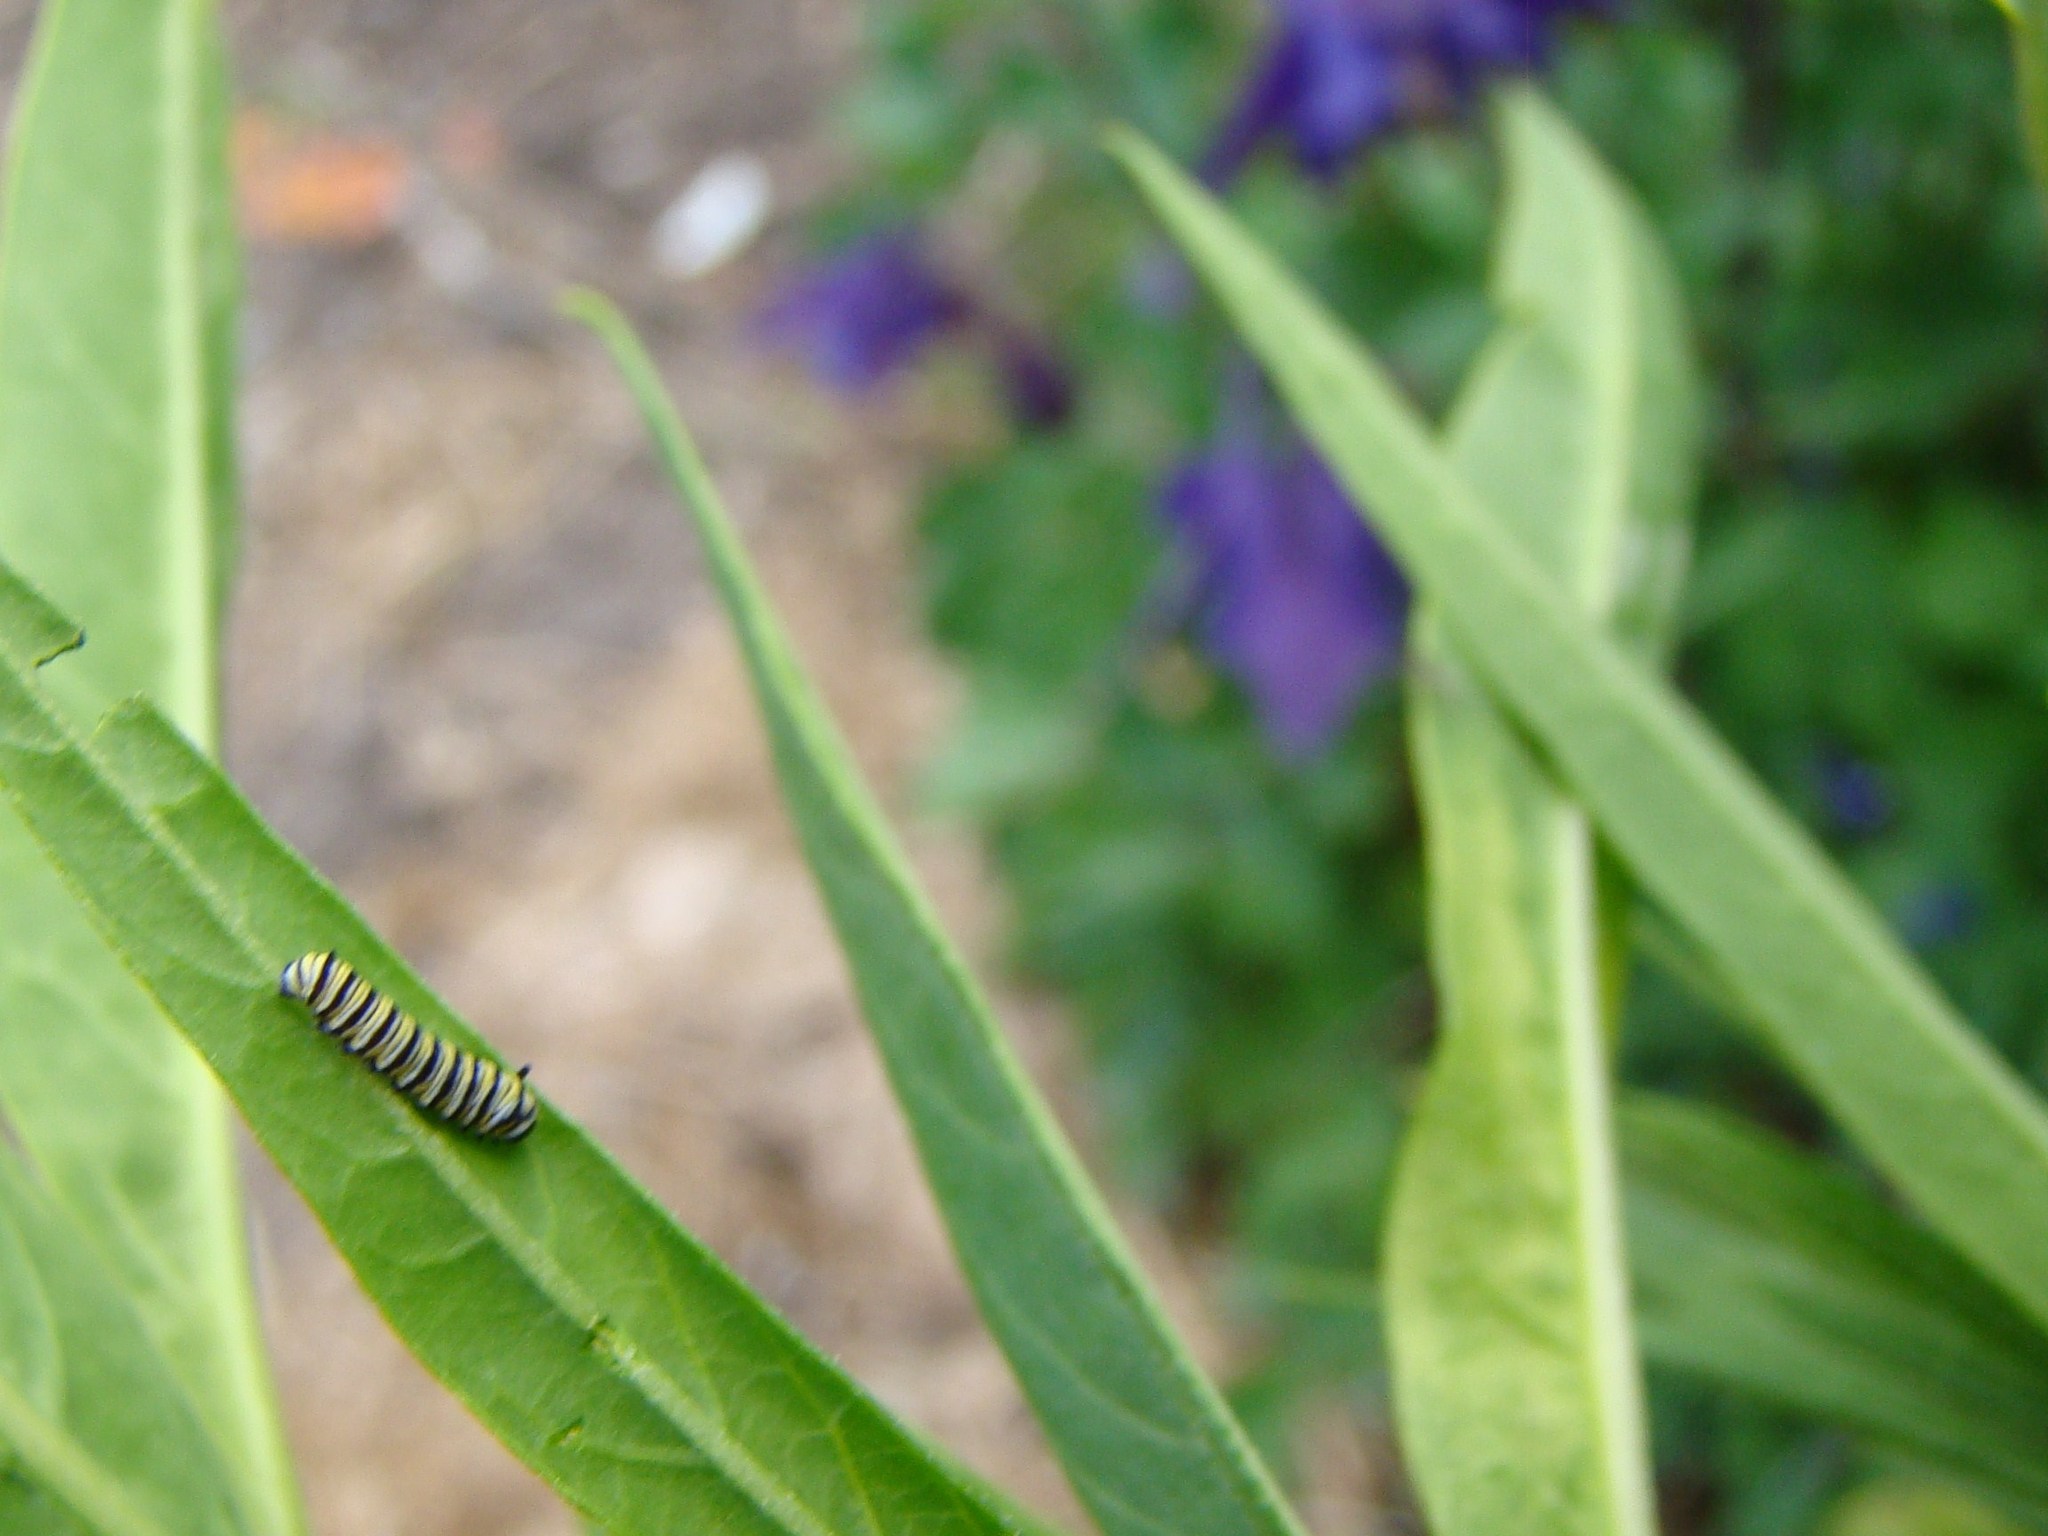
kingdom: Animalia
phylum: Arthropoda
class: Insecta
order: Lepidoptera
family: Nymphalidae
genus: Danaus
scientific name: Danaus plexippus
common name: Monarch
